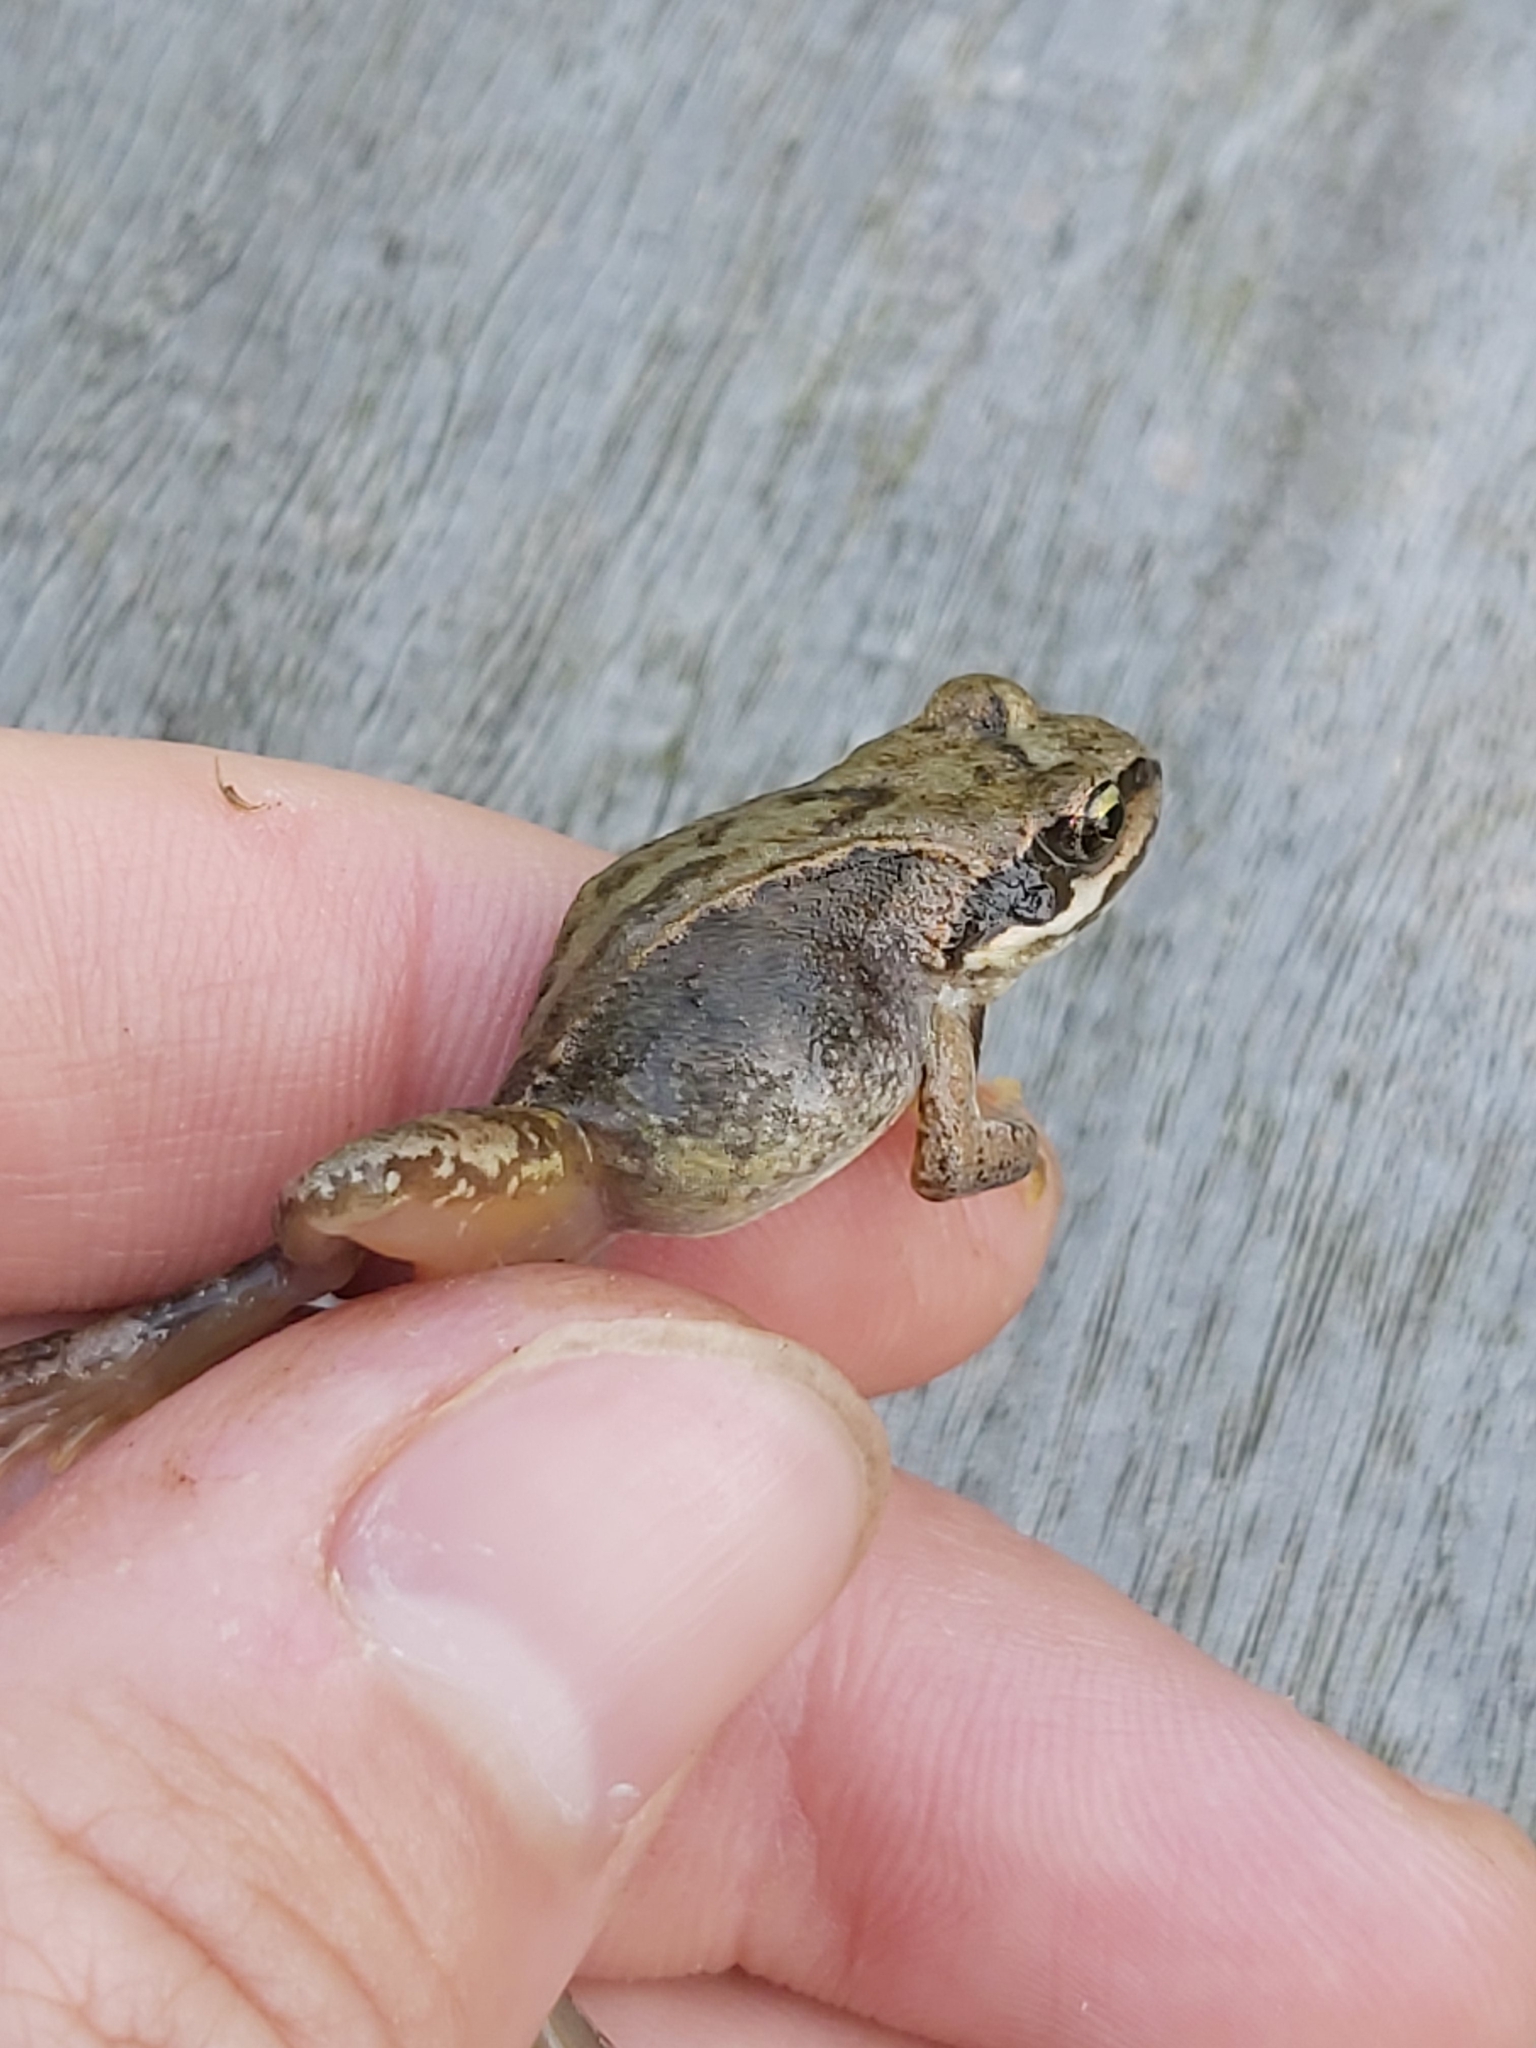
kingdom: Animalia
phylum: Chordata
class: Amphibia
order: Anura
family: Ranidae
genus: Rana
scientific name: Rana temporaria
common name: Common frog
